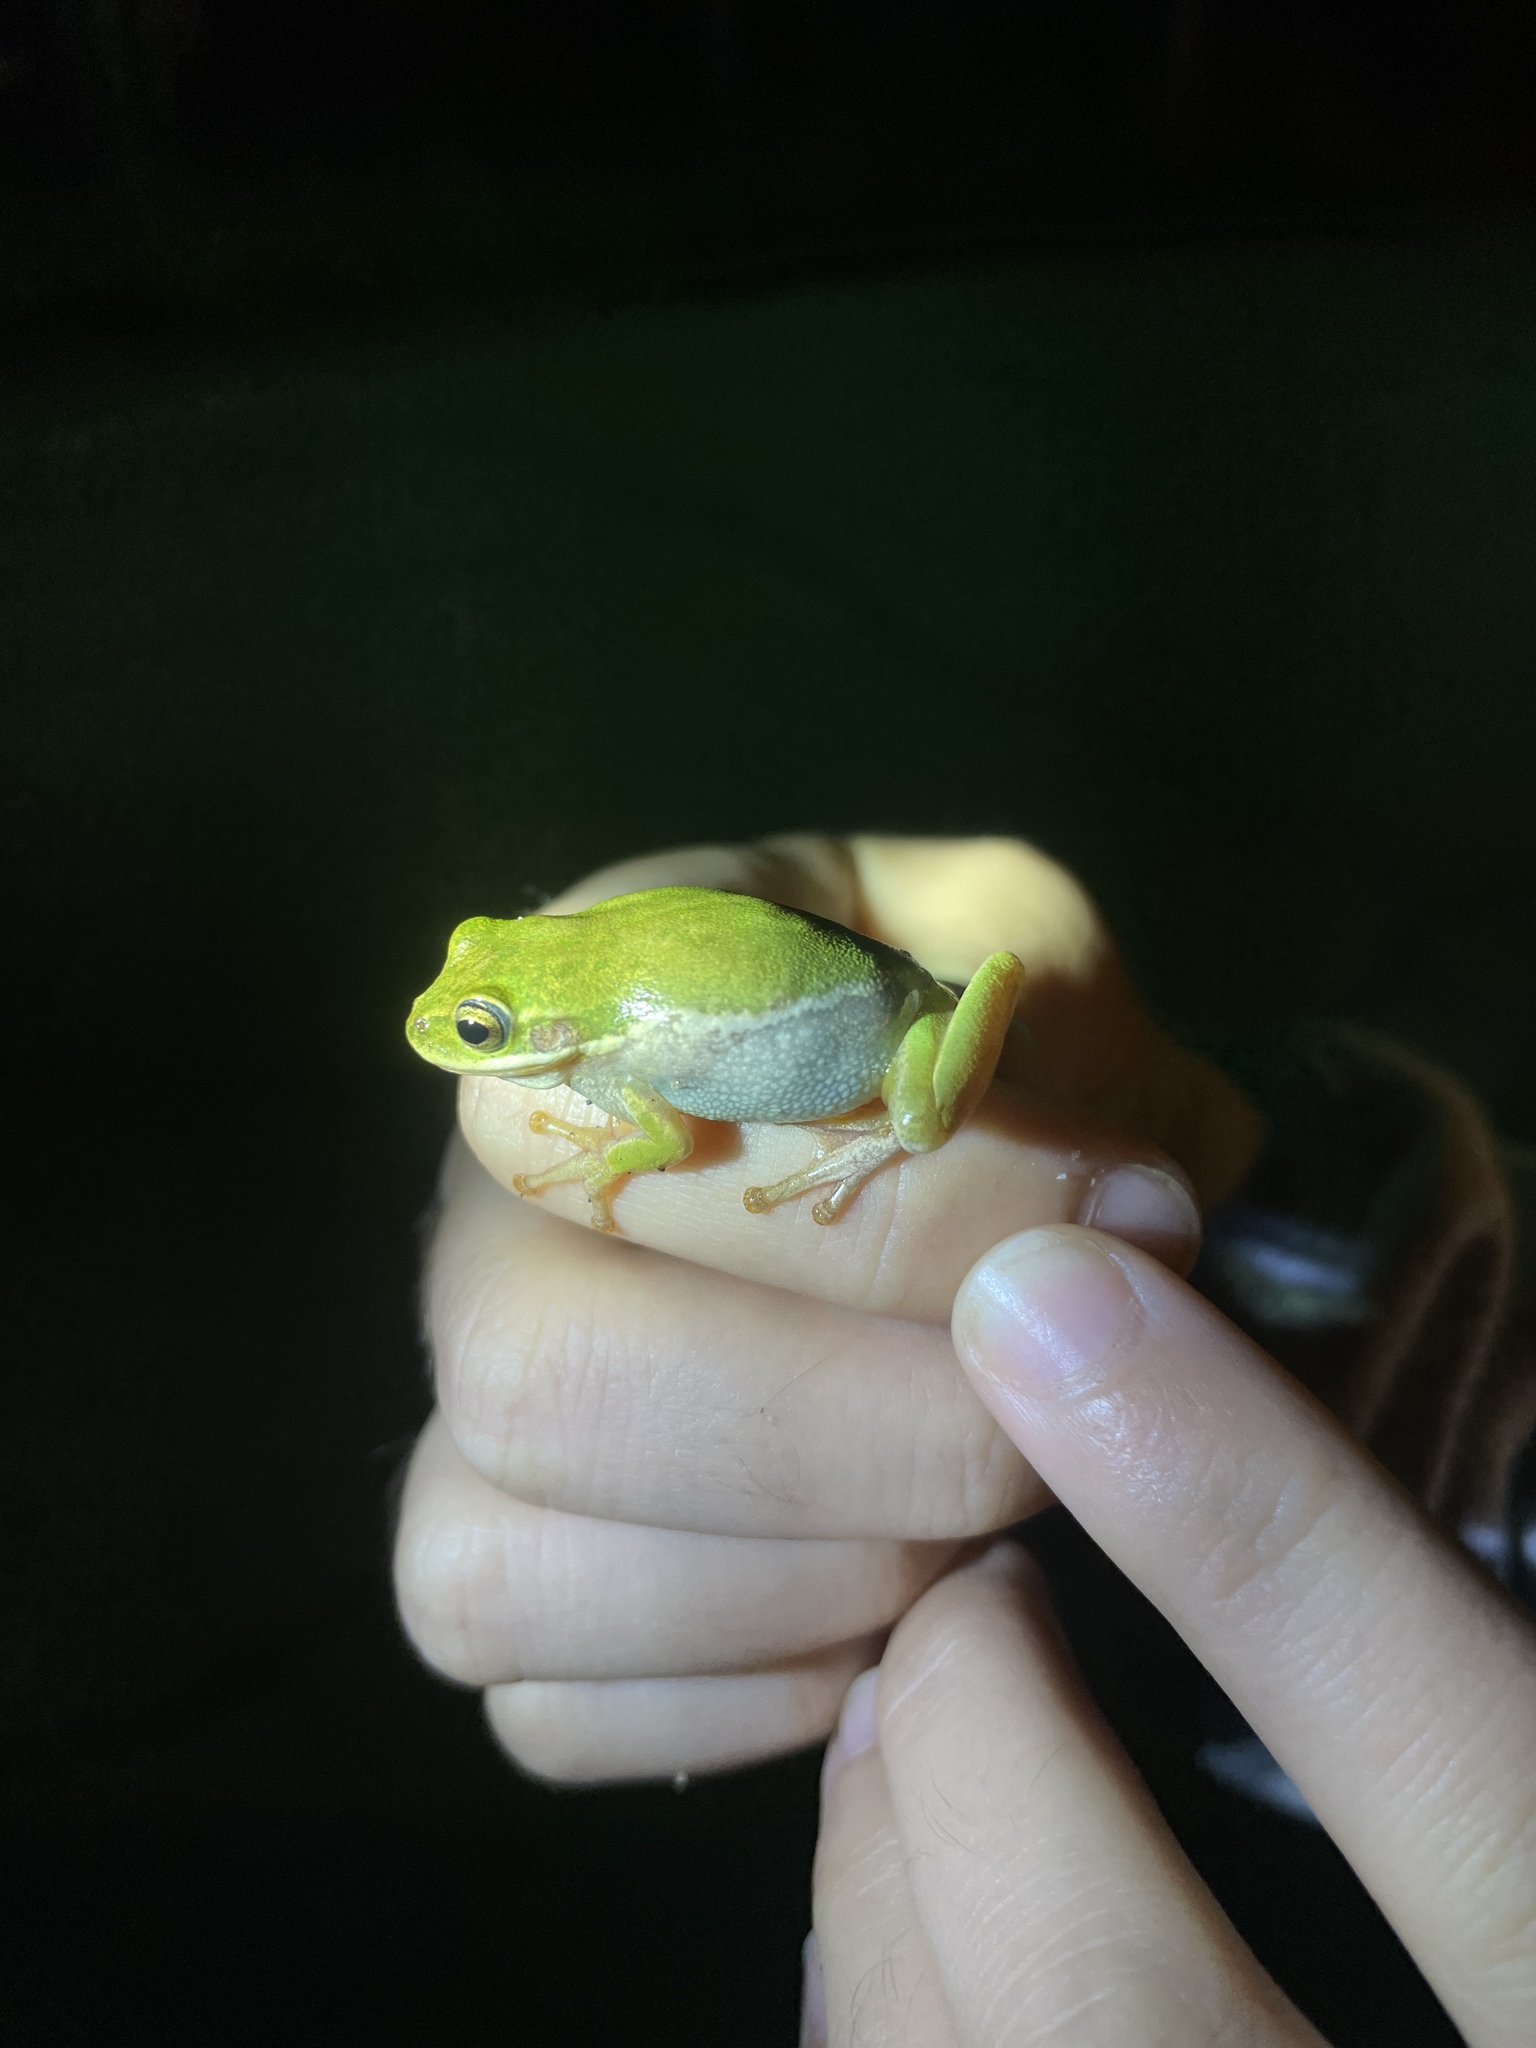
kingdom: Animalia
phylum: Chordata
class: Amphibia
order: Anura
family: Hylidae
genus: Dryophytes
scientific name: Dryophytes squirellus
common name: Squirrel treefrog
